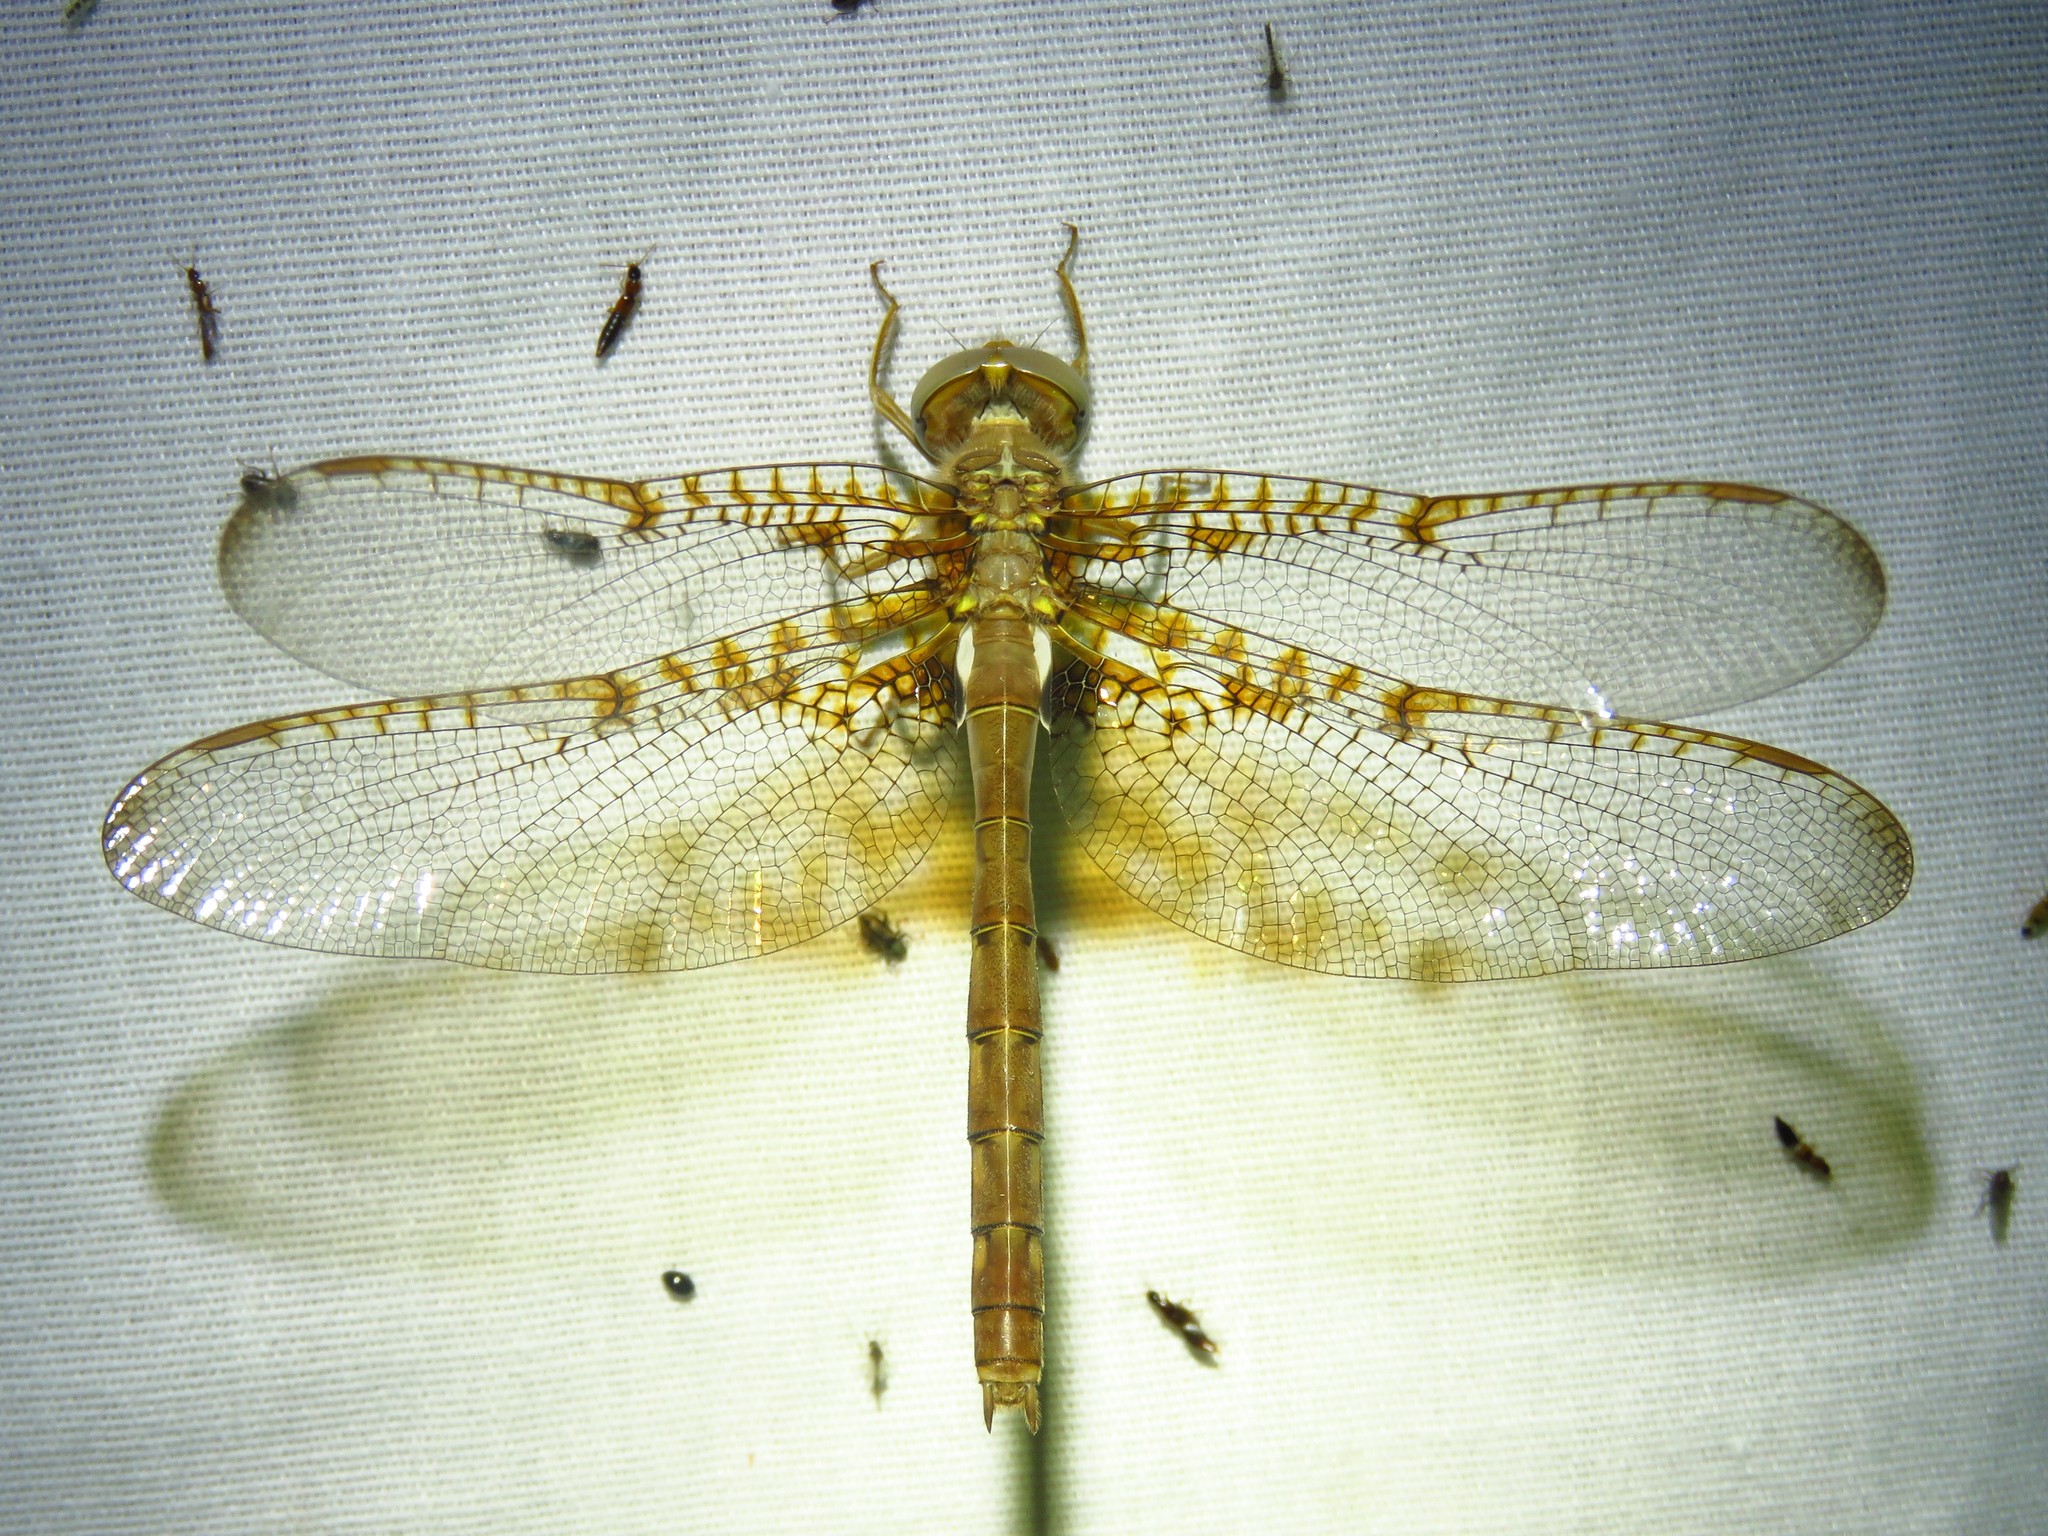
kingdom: Animalia
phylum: Arthropoda
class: Insecta
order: Odonata
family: Corduliidae
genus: Neurocordulia
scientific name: Neurocordulia xanthosoma
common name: Orange shadowdragon
